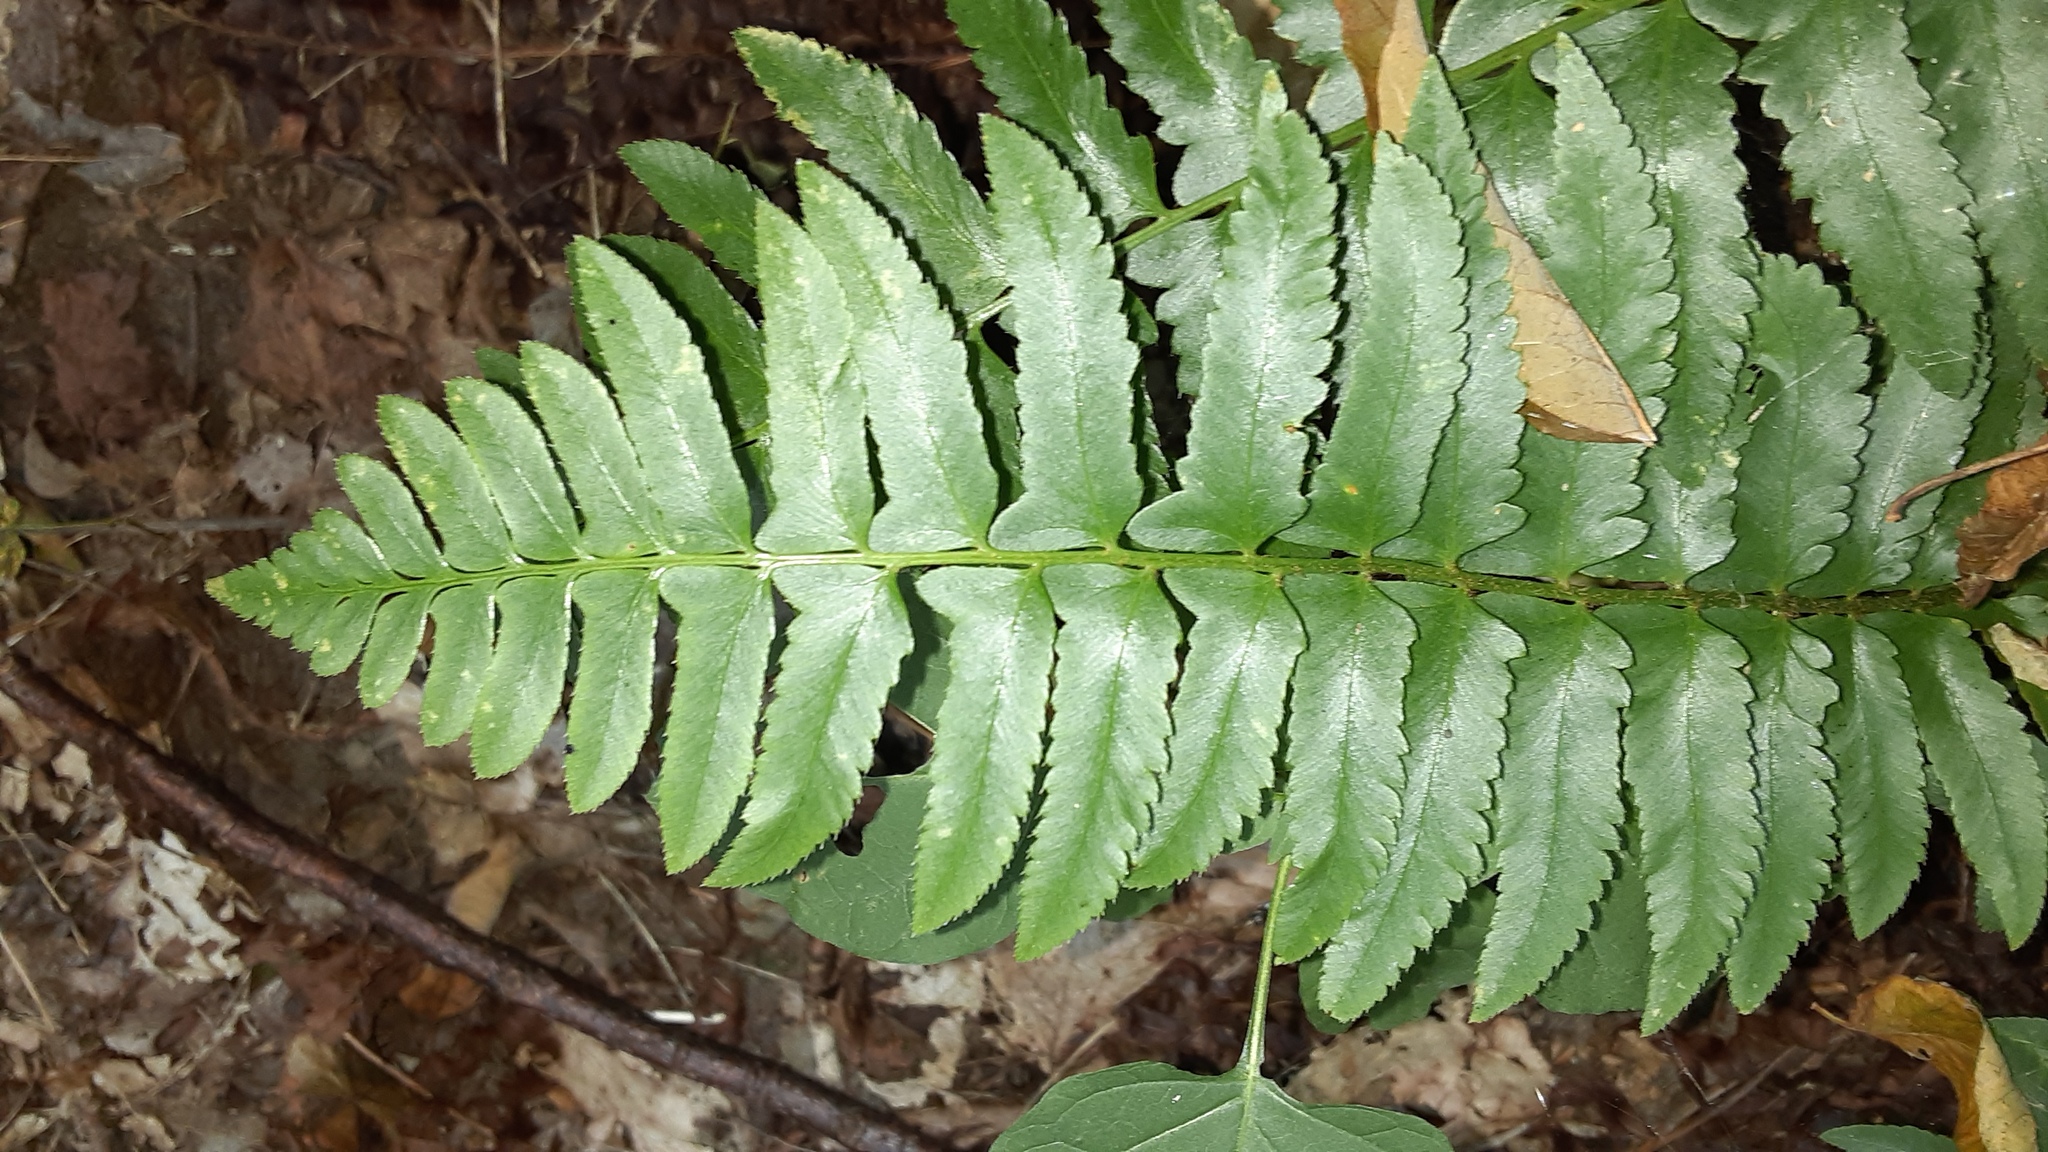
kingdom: Plantae
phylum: Tracheophyta
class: Polypodiopsida
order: Polypodiales
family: Dryopteridaceae
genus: Polystichum
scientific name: Polystichum acrostichoides
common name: Christmas fern
